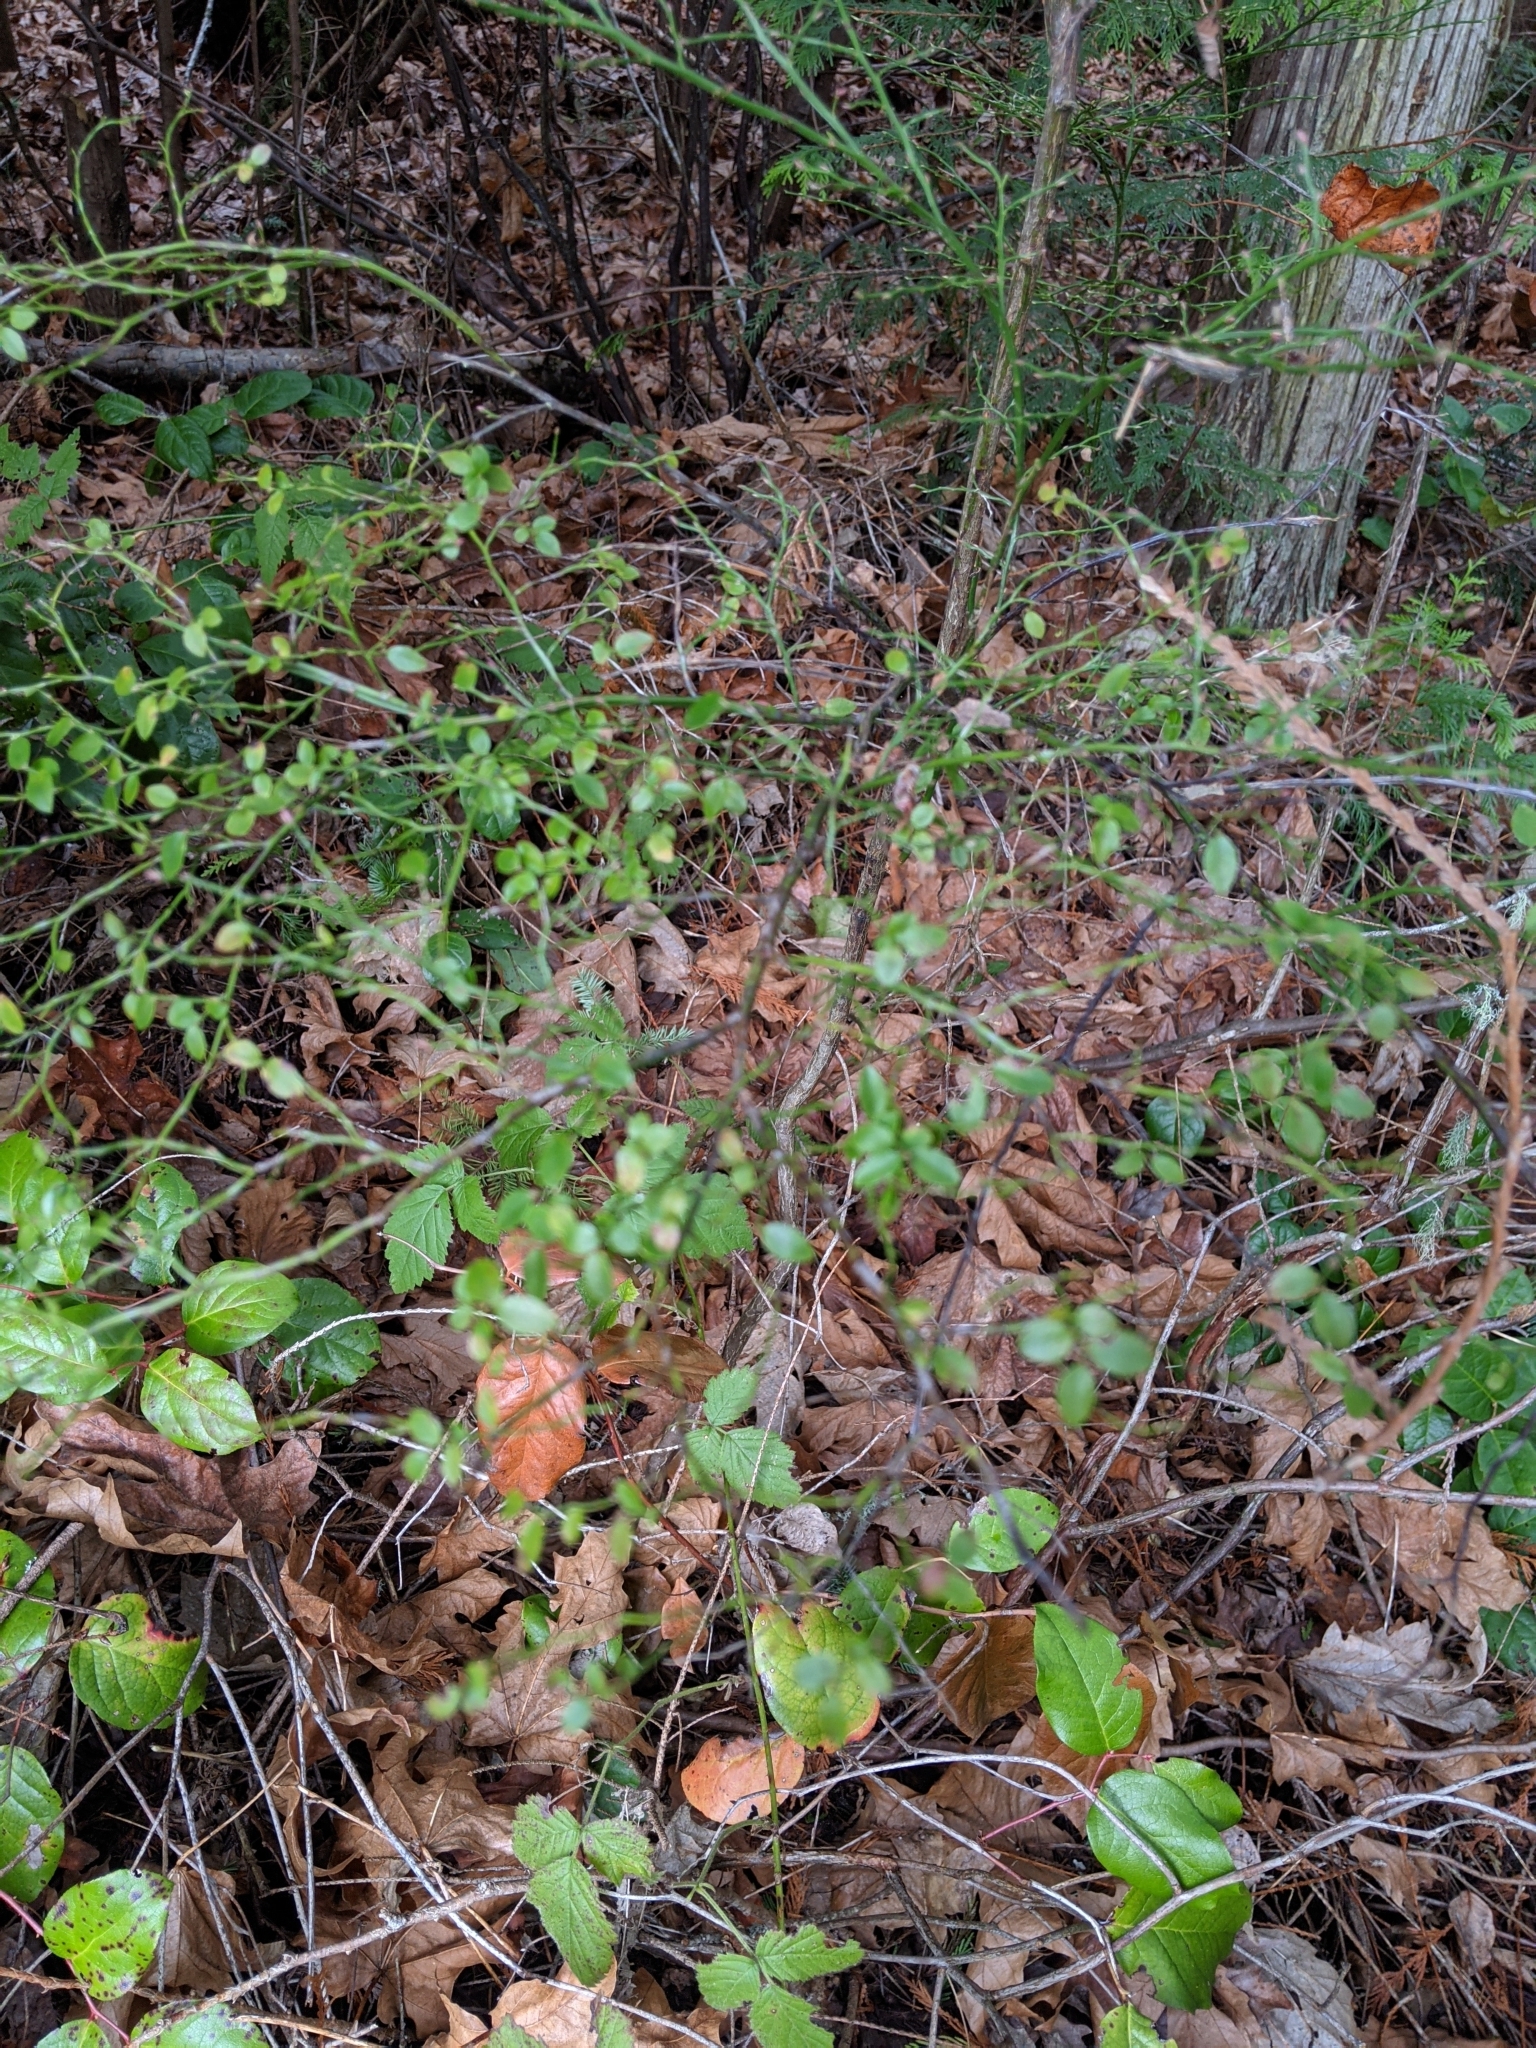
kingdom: Plantae
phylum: Tracheophyta
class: Magnoliopsida
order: Ericales
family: Ericaceae
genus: Vaccinium
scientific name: Vaccinium parvifolium
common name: Red-huckleberry
